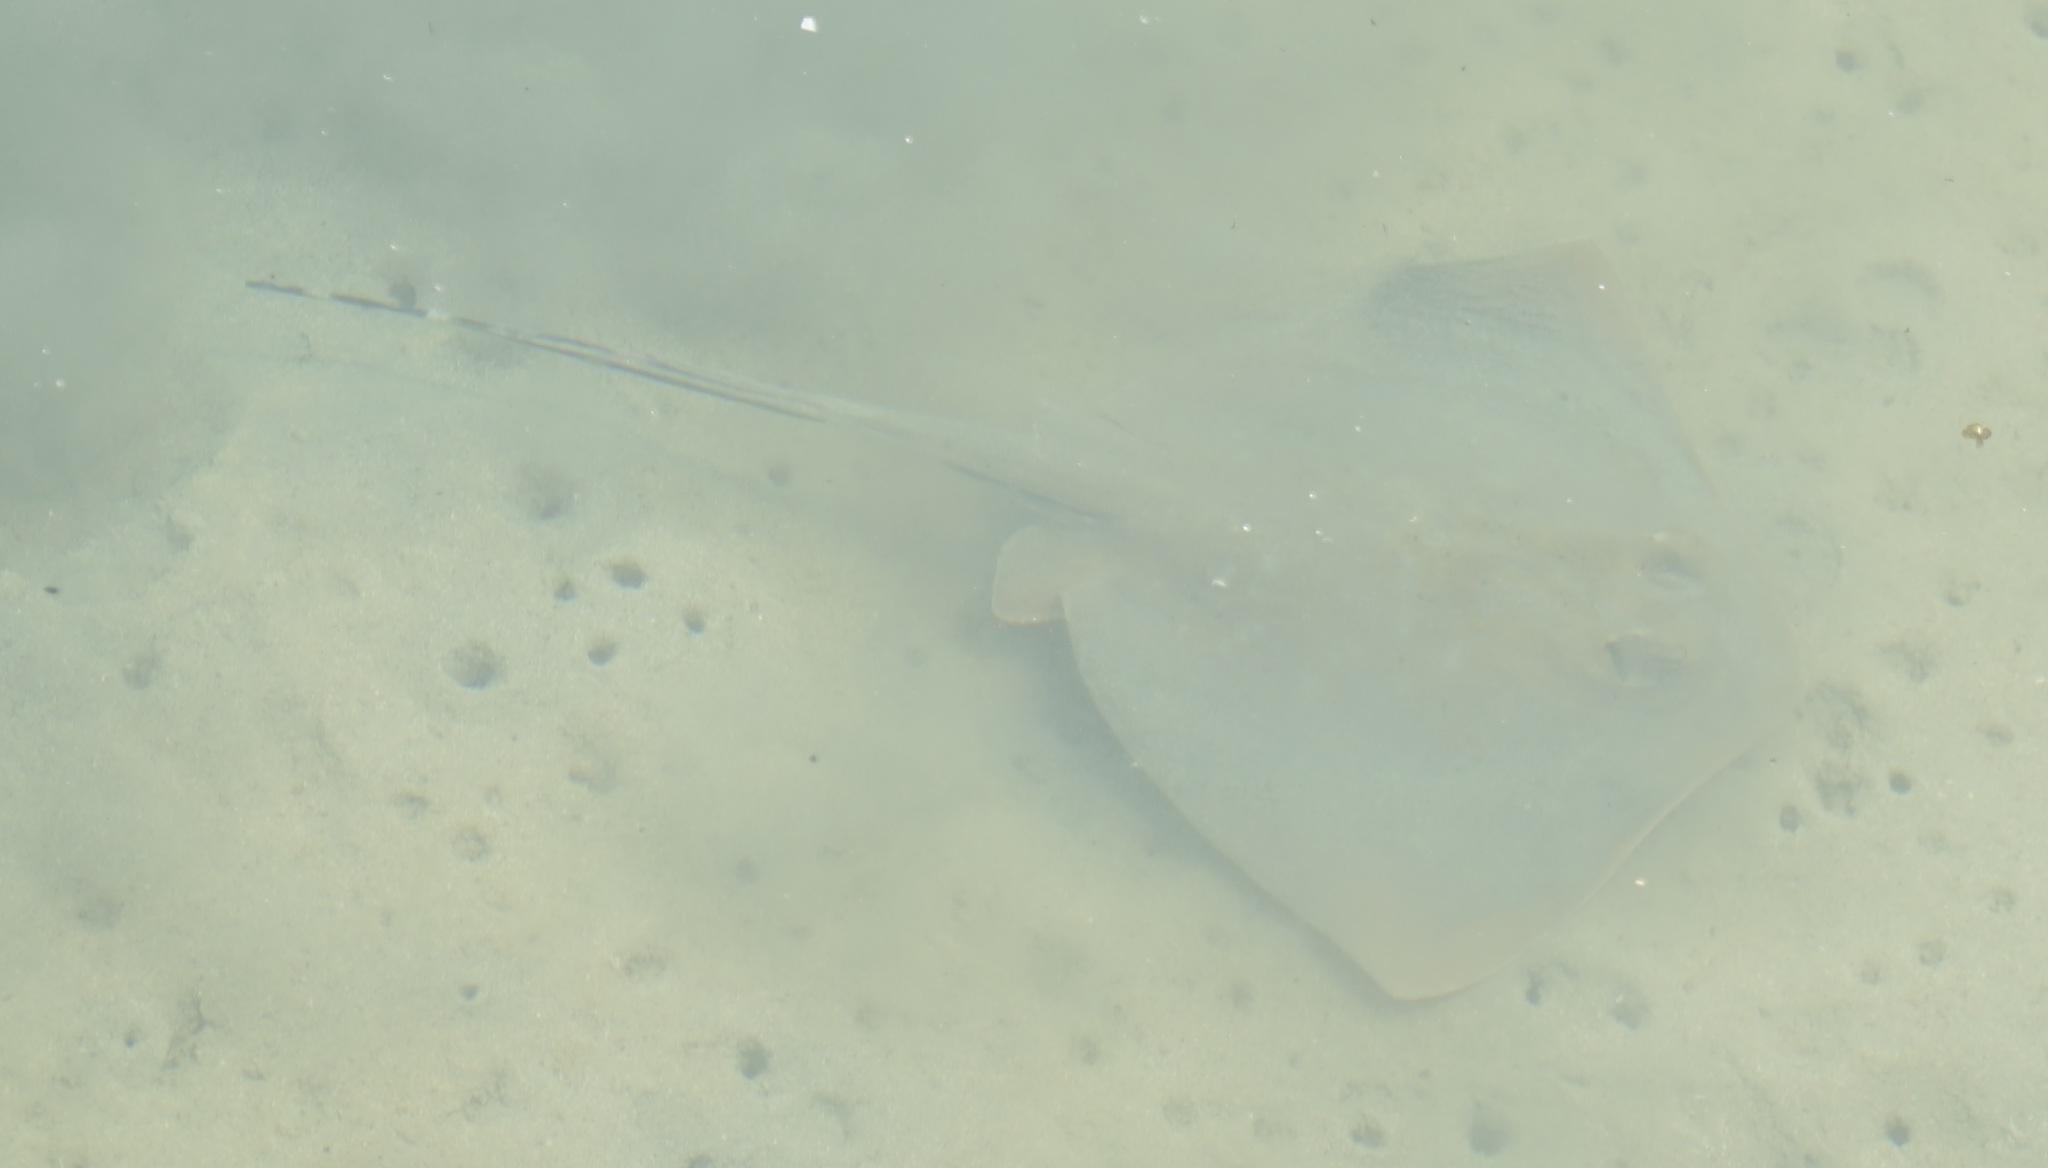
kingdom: Animalia
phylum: Chordata
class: Elasmobranchii
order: Myliobatiformes
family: Dasyatidae
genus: Neotrygon
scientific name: Neotrygon kuhlii
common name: Bluespotted stingray
